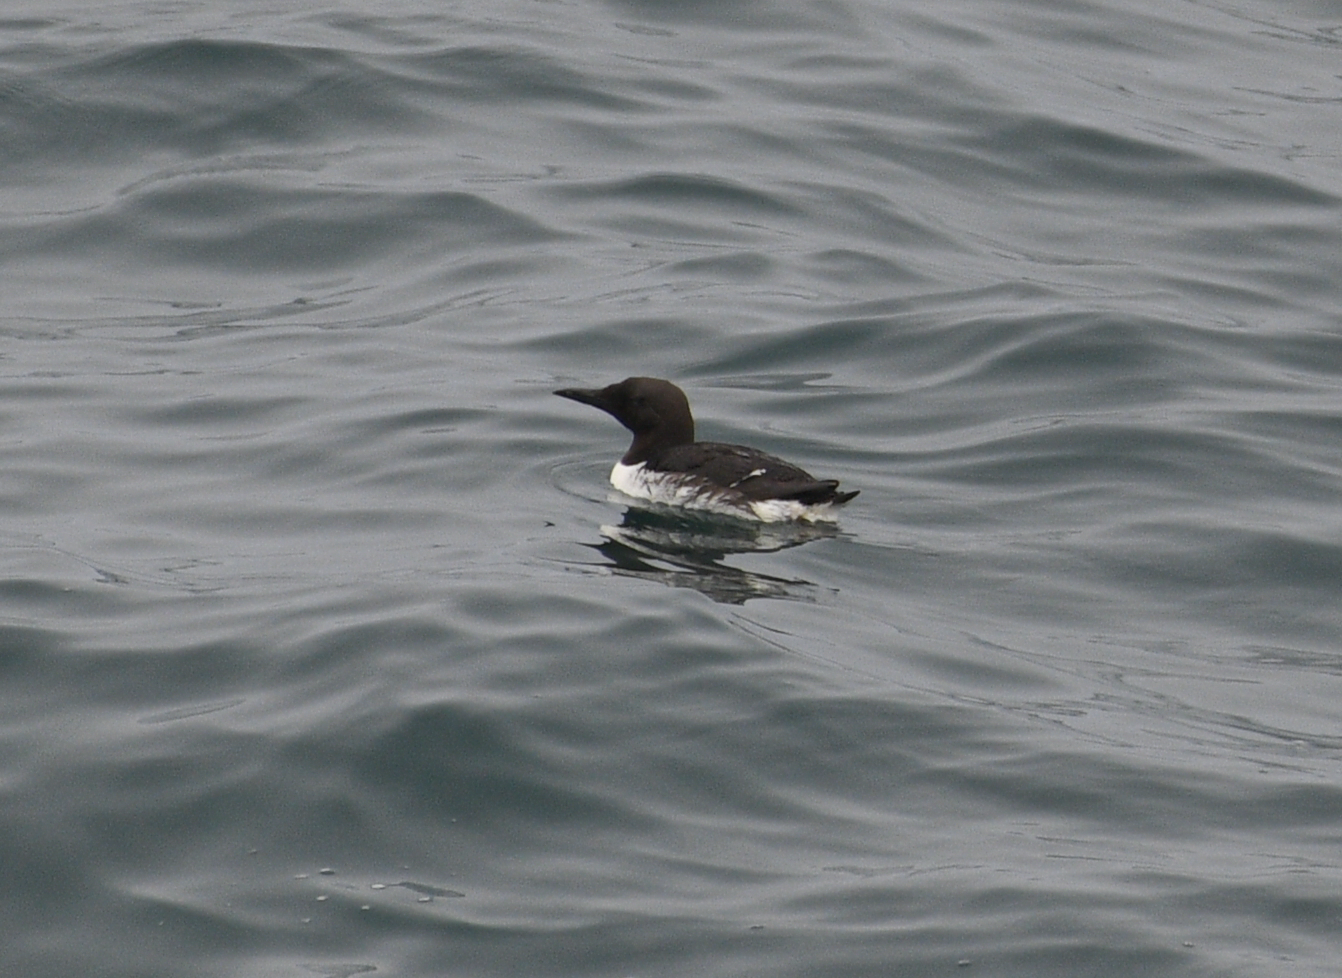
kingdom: Animalia
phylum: Chordata
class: Aves
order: Charadriiformes
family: Alcidae
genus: Uria
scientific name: Uria aalge
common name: Common murre
